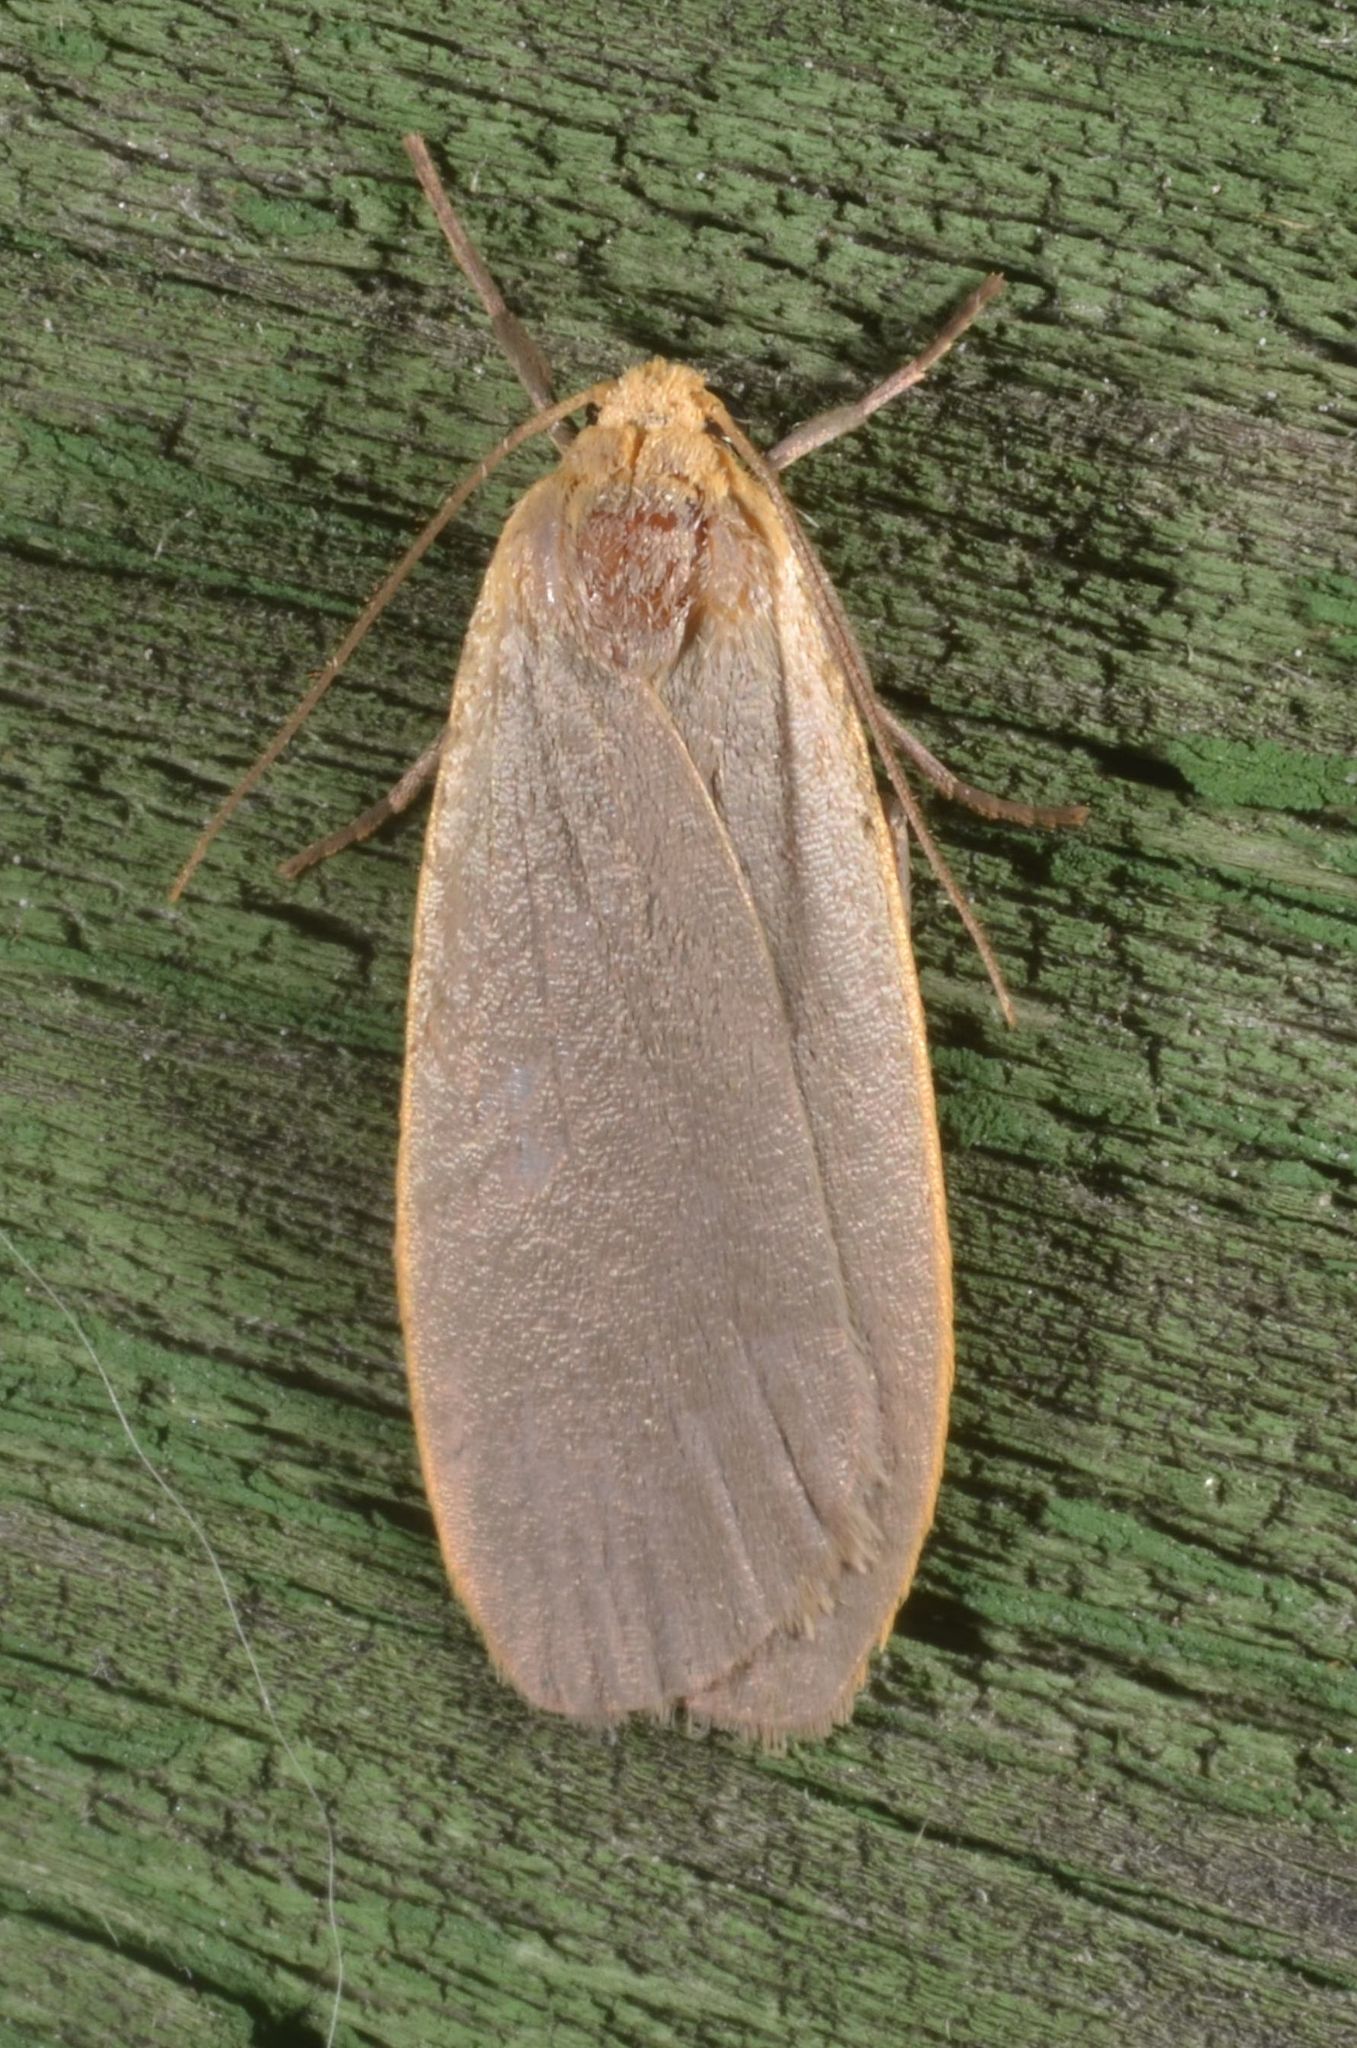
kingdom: Animalia
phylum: Arthropoda
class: Insecta
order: Lepidoptera
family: Erebidae
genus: Collita
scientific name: Collita griseola
